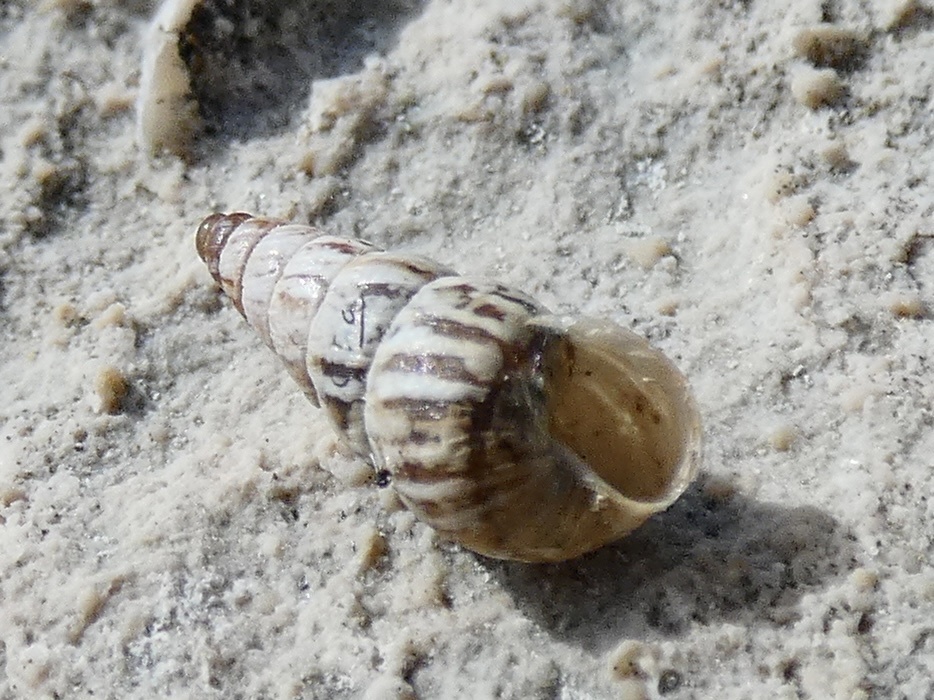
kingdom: Animalia
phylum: Mollusca
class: Gastropoda
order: Stylommatophora
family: Geomitridae
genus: Cochlicella
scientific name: Cochlicella acuta
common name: Pointed snail
